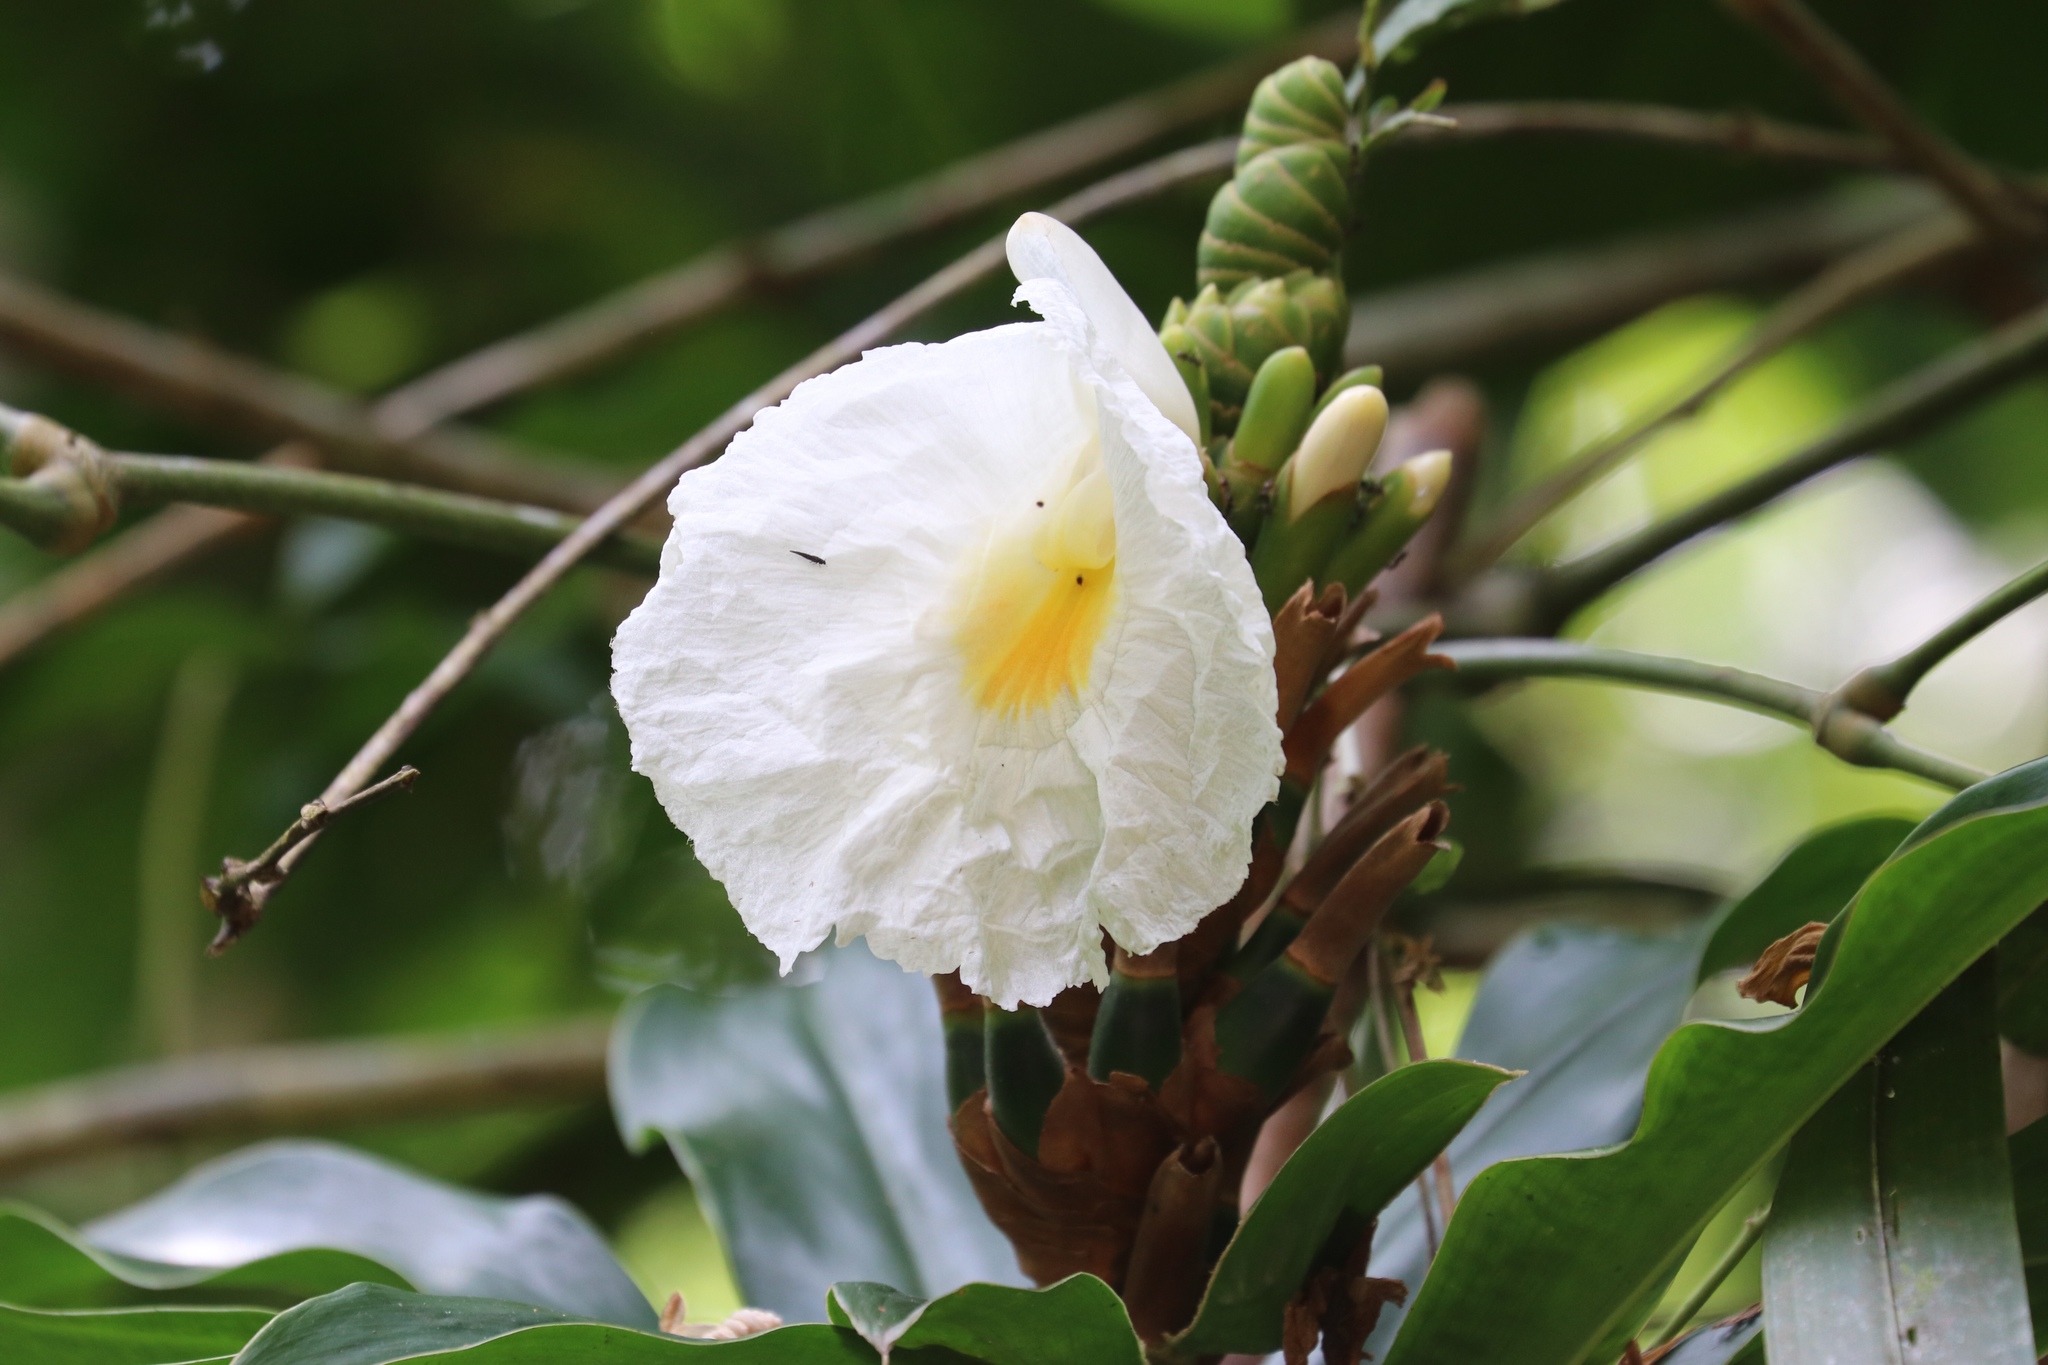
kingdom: Plantae
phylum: Tracheophyta
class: Liliopsida
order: Zingiberales
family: Costaceae
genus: Dimerocostus
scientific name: Dimerocostus strobilaceus
